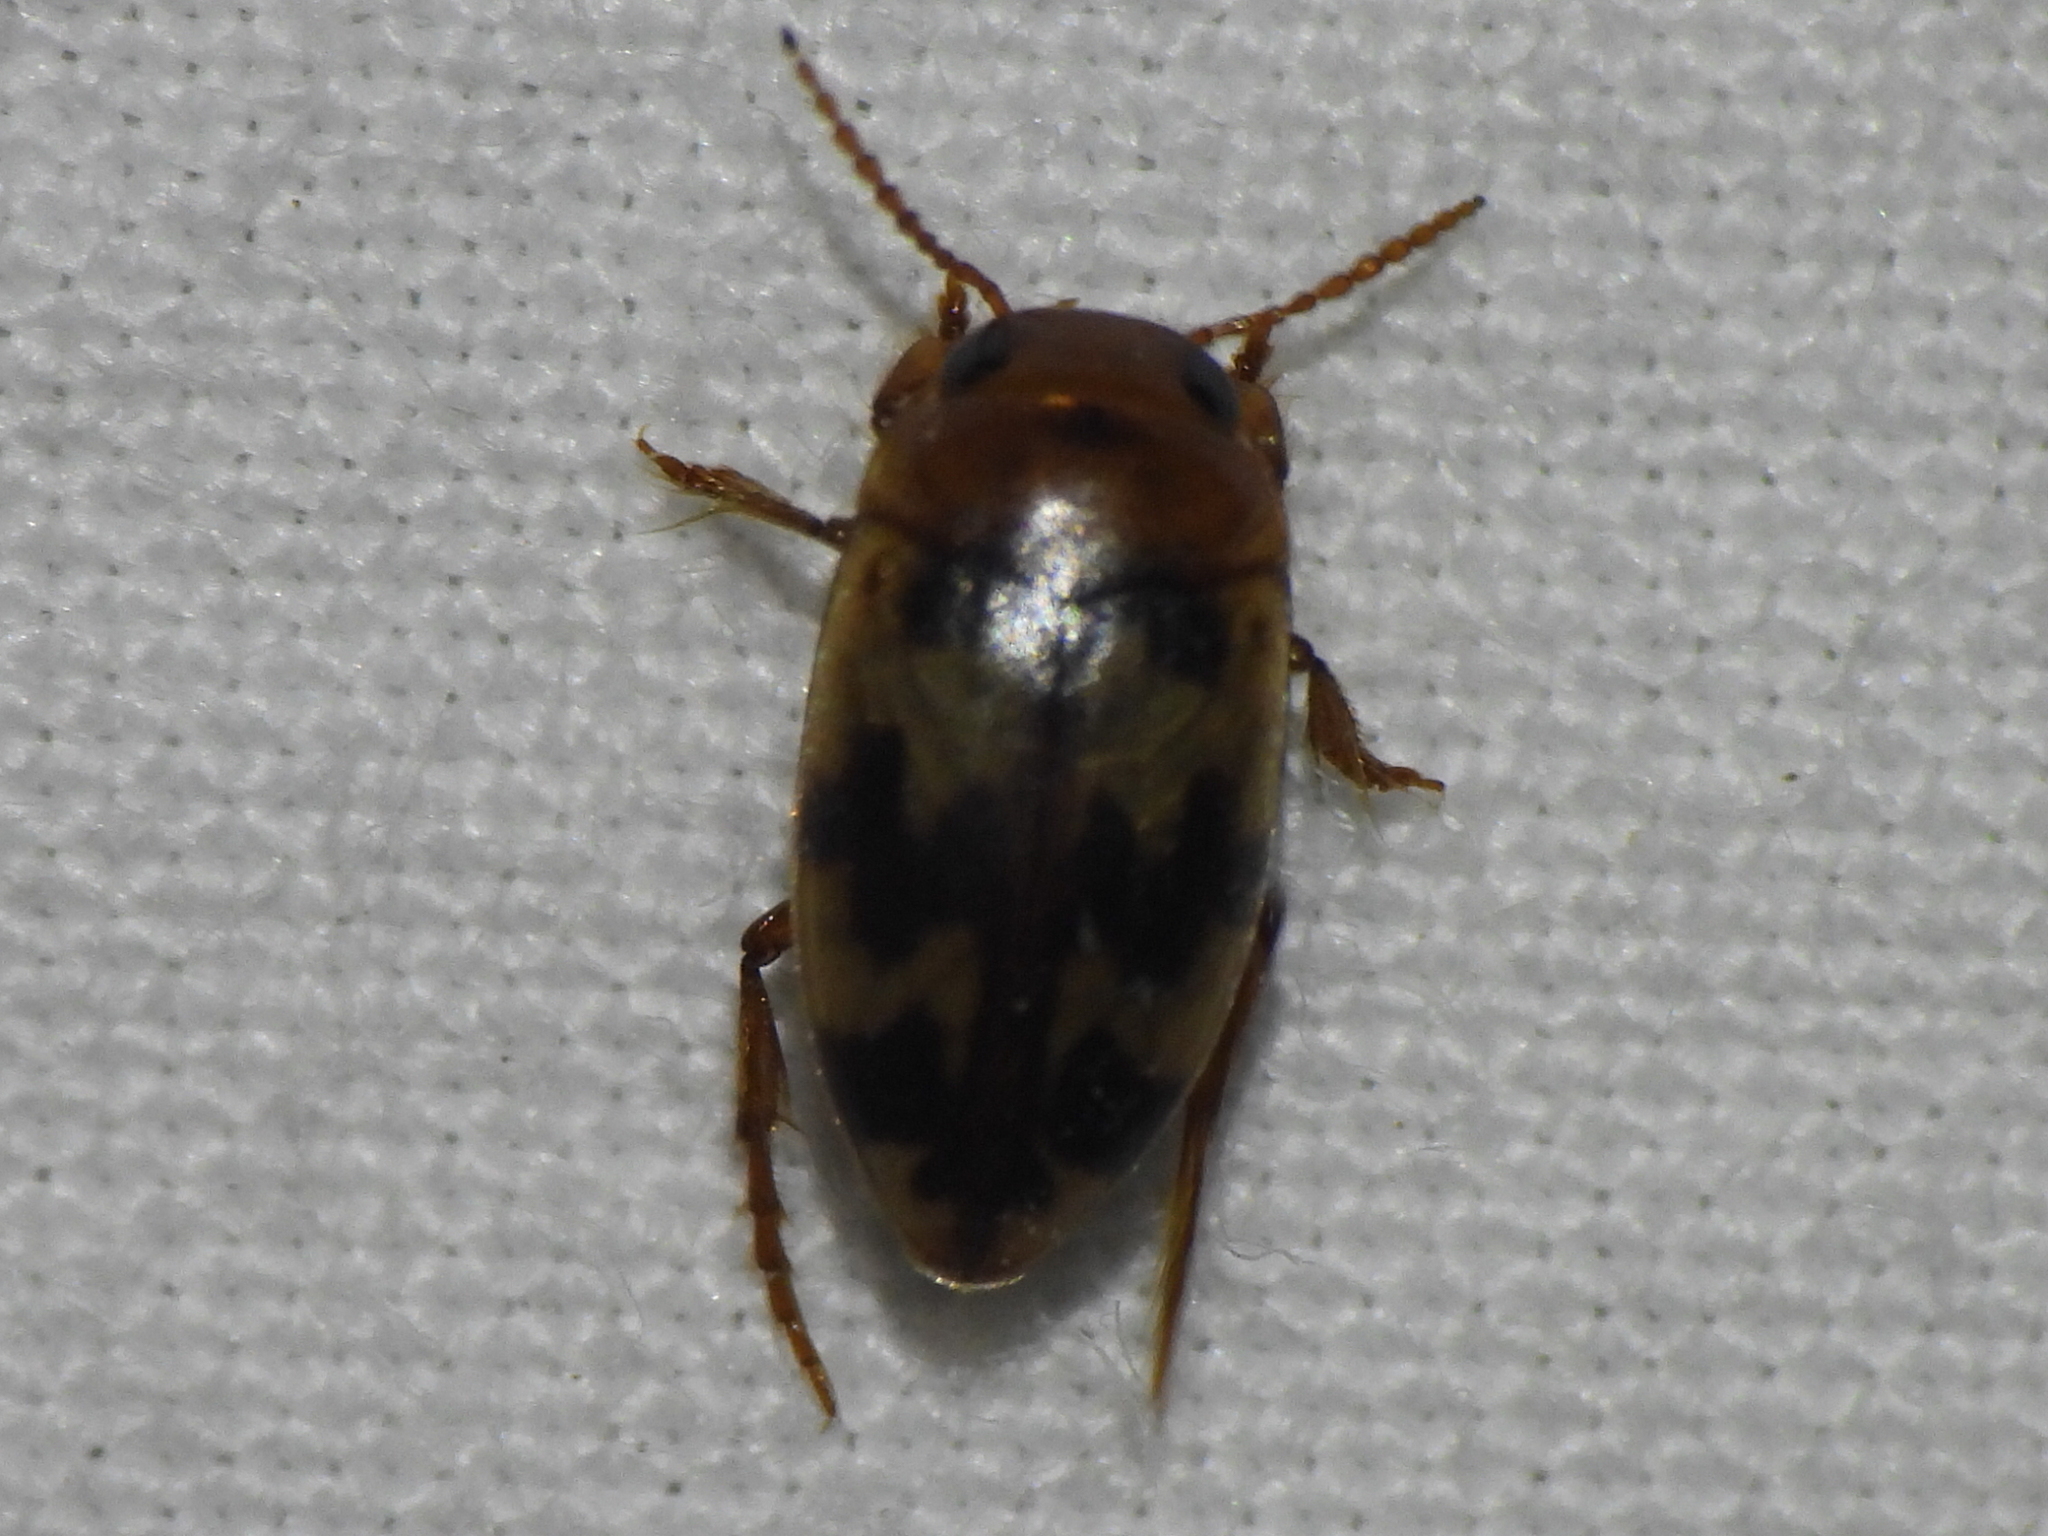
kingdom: Animalia
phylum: Arthropoda
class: Insecta
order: Coleoptera
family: Dytiscidae
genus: Heterosternuta
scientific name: Heterosternuta diversicornis
